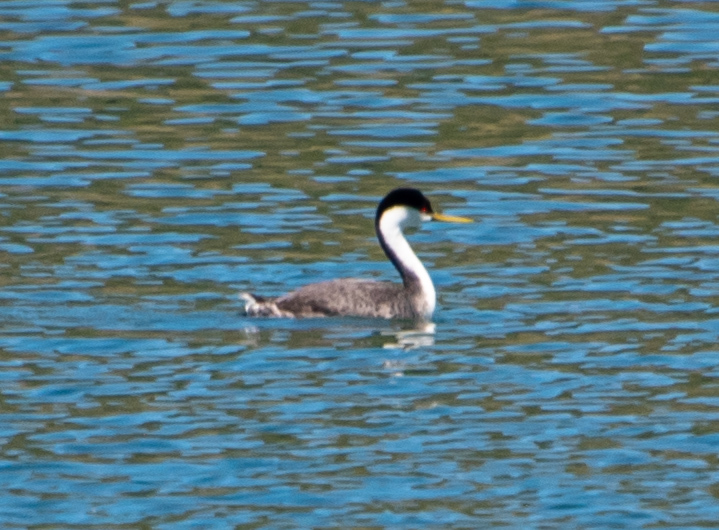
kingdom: Animalia
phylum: Chordata
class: Aves
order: Podicipediformes
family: Podicipedidae
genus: Aechmophorus
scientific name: Aechmophorus occidentalis
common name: Western grebe
